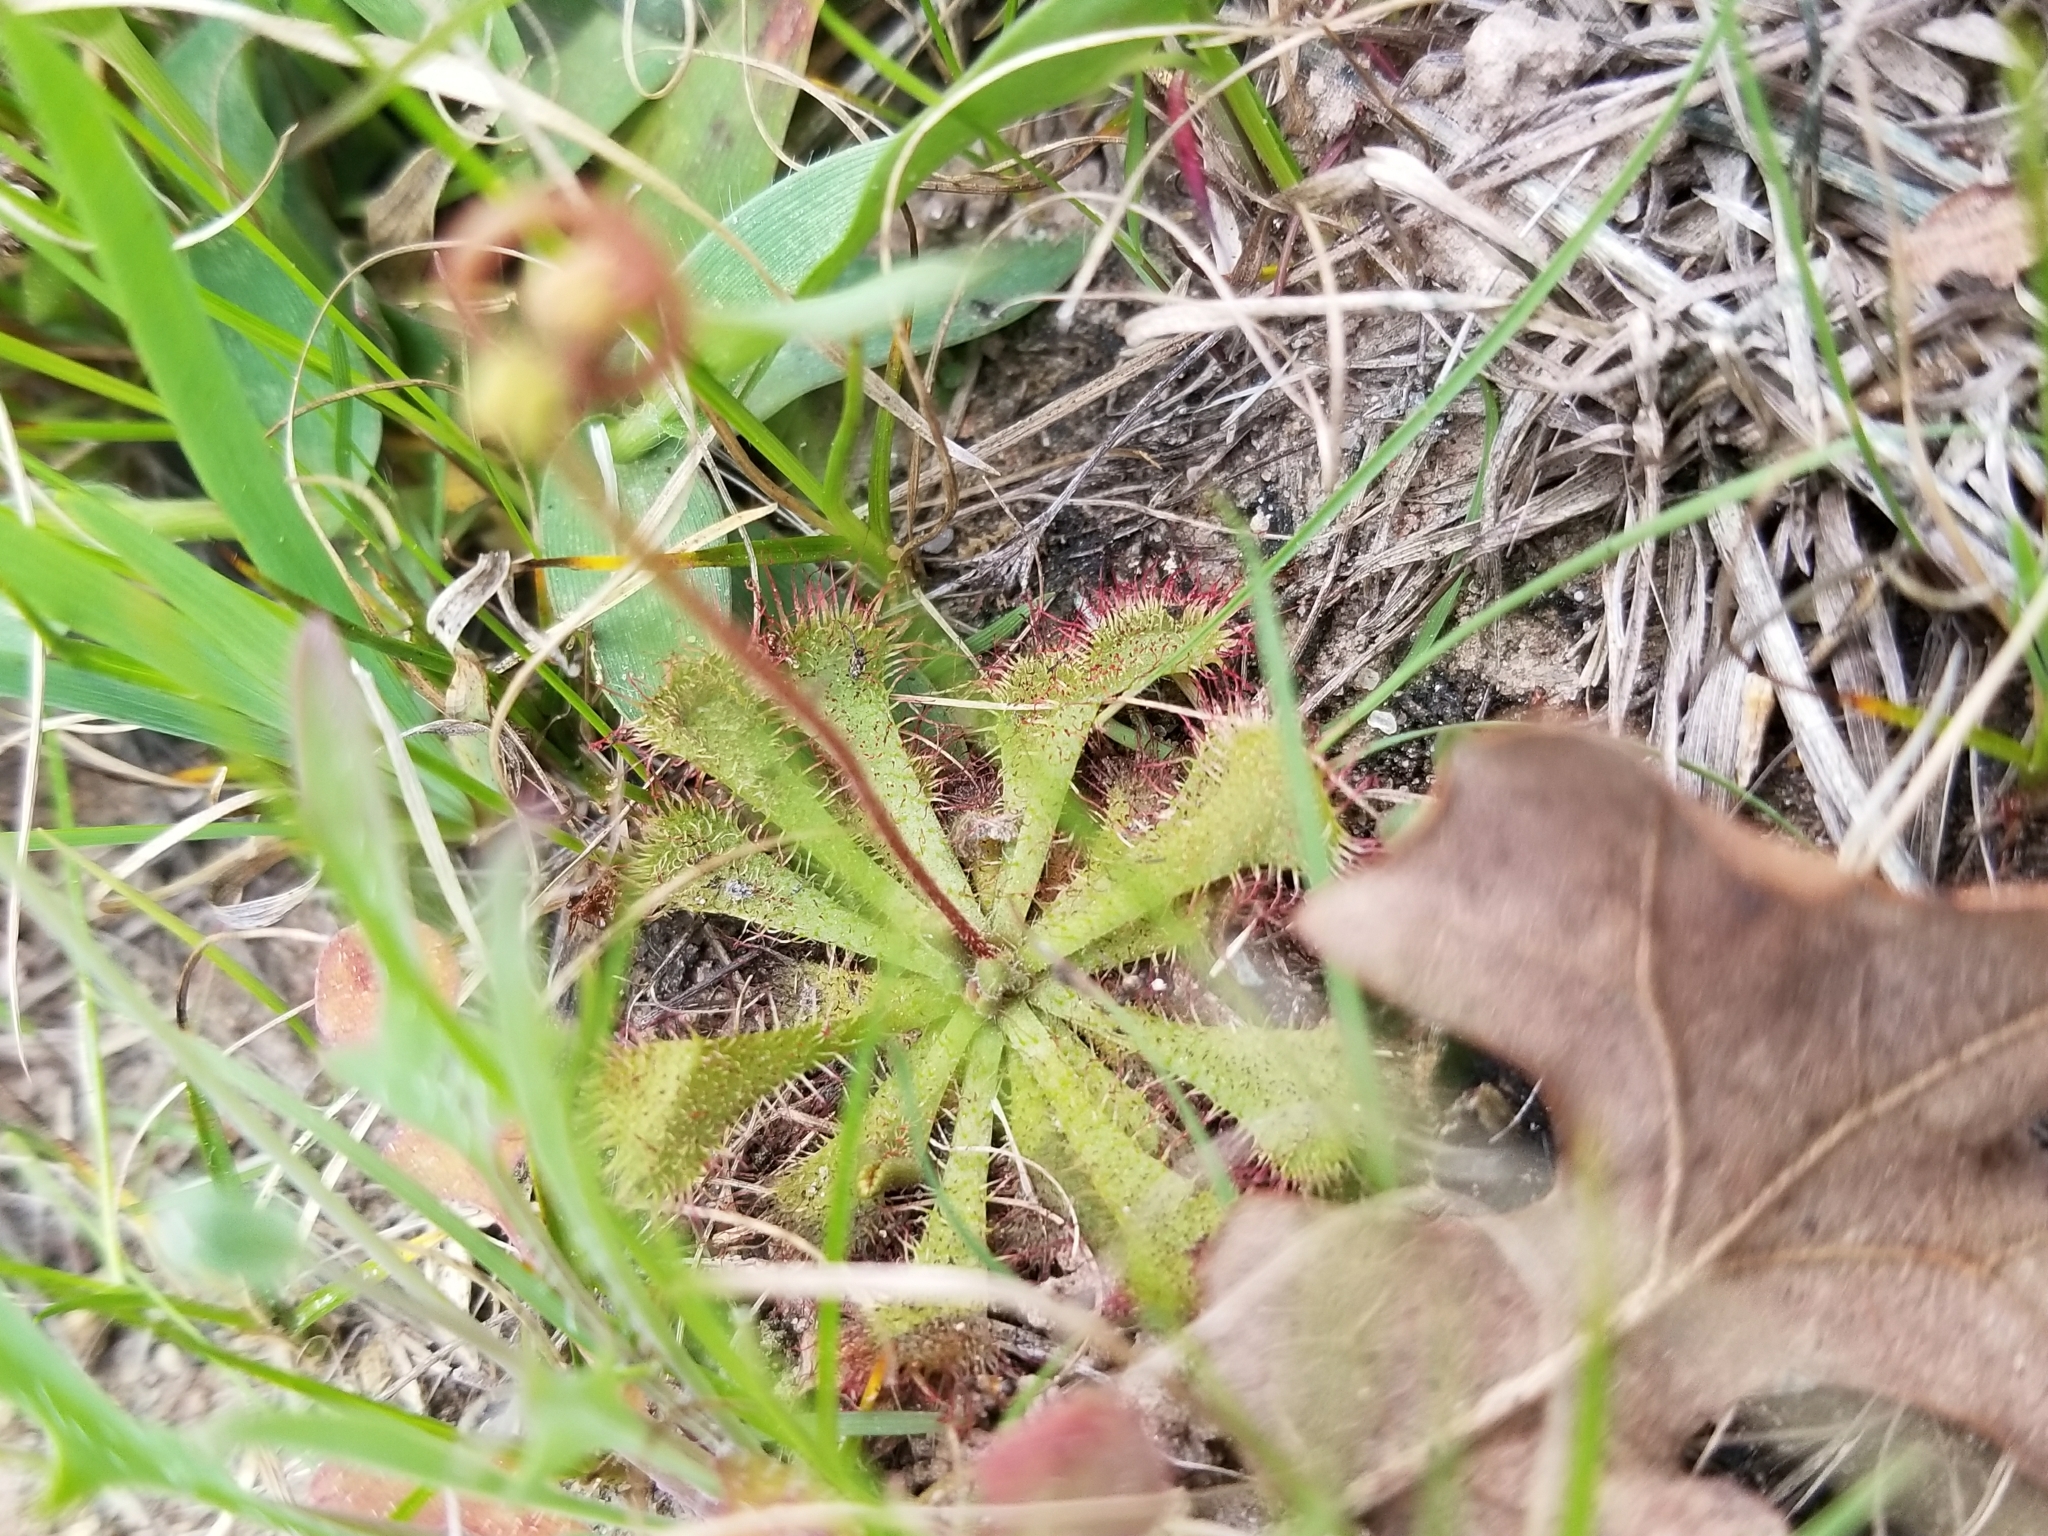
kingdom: Plantae
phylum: Tracheophyta
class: Magnoliopsida
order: Caryophyllales
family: Droseraceae
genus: Drosera
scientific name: Drosera brevifolia
